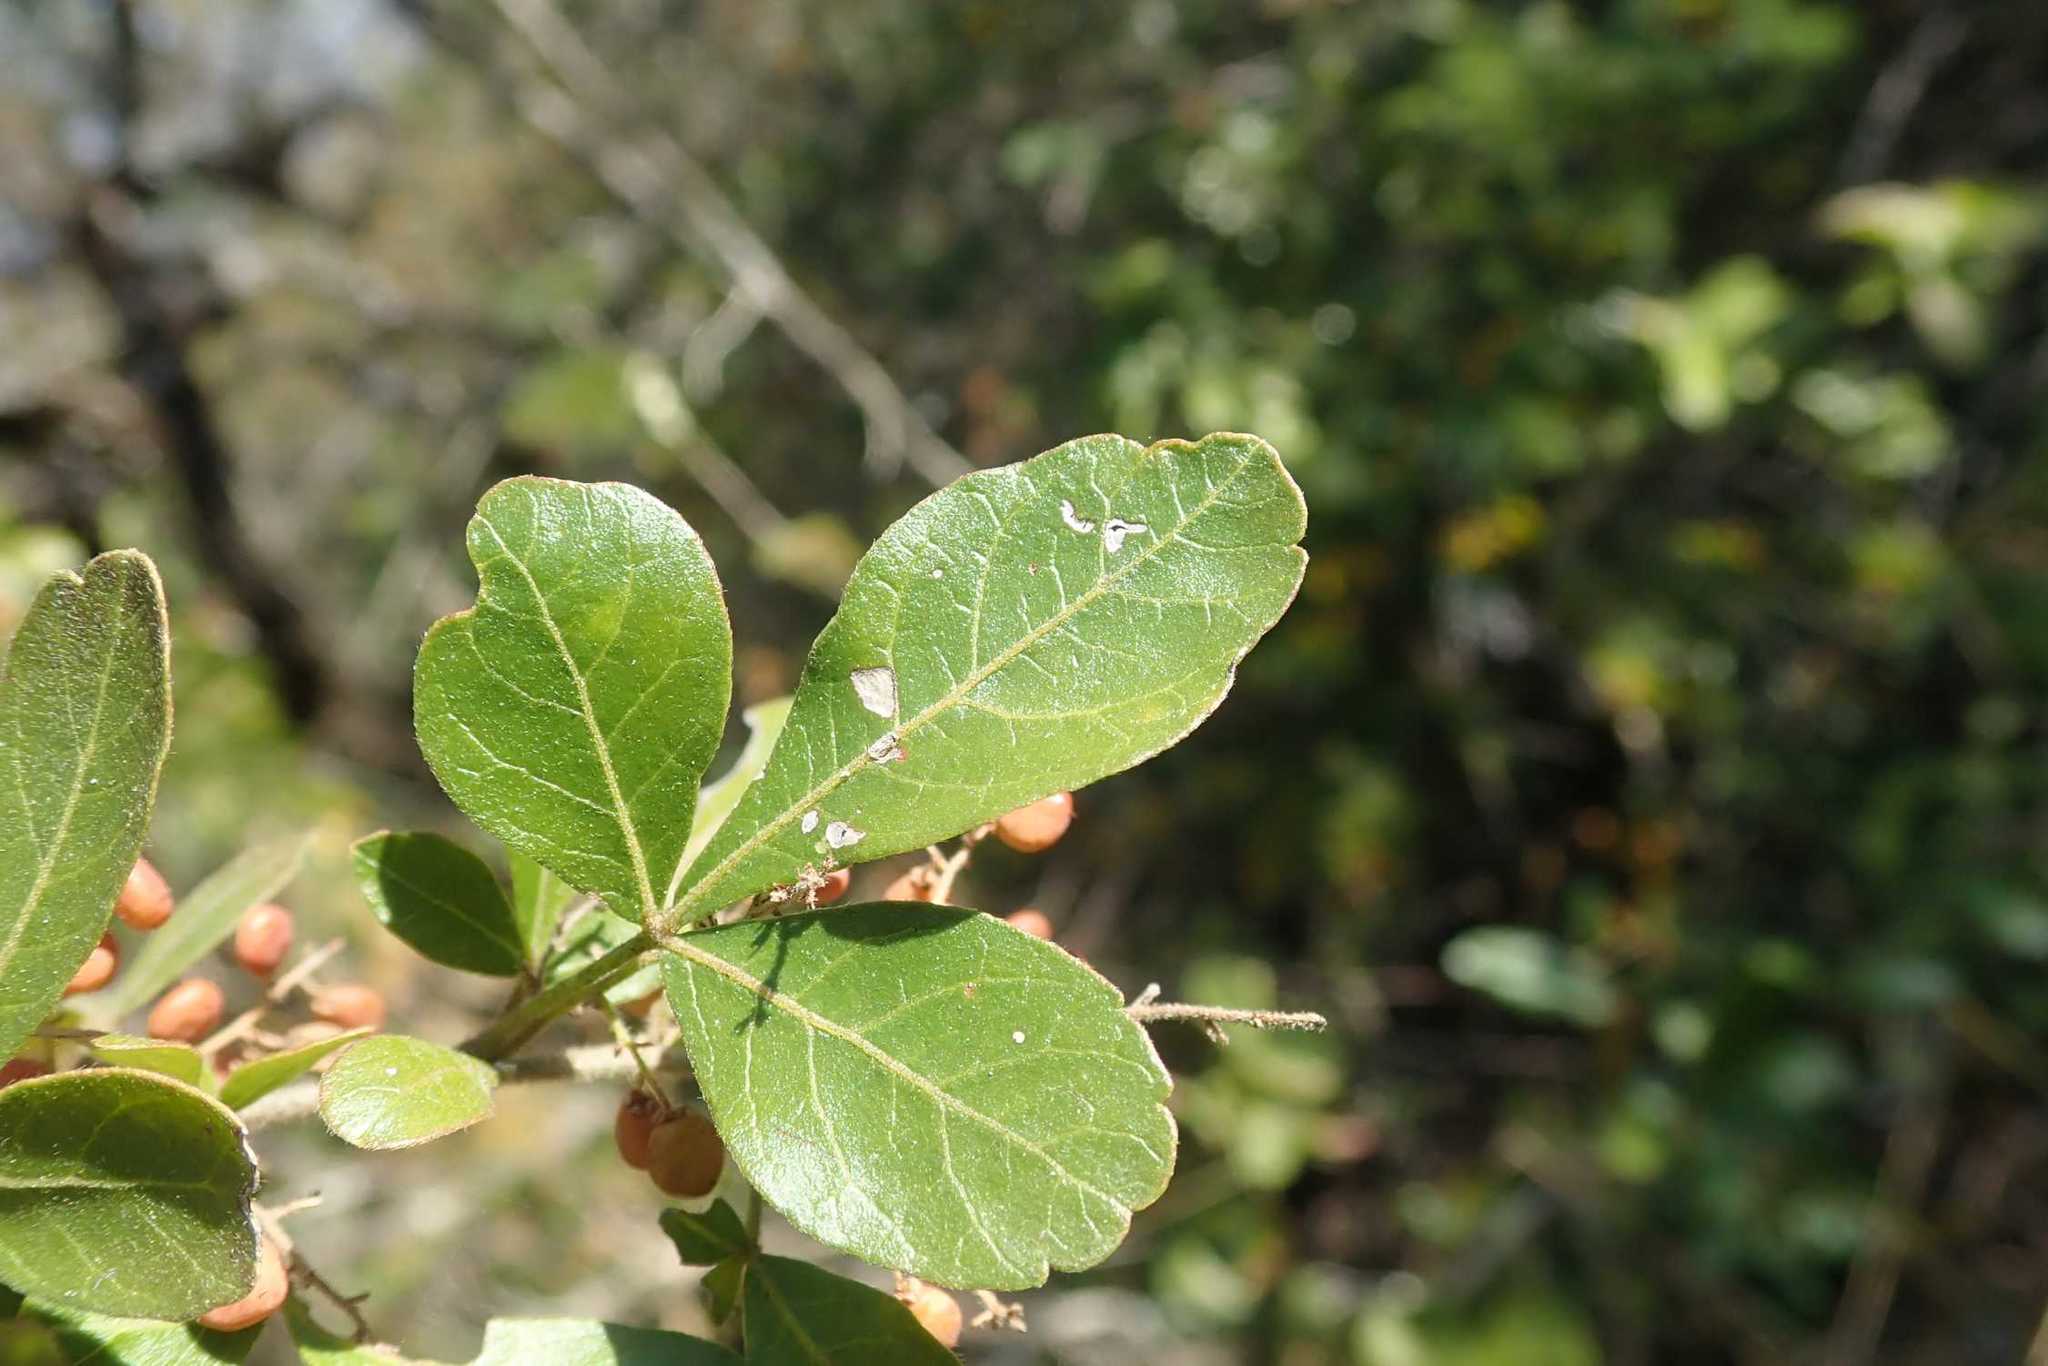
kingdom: Plantae
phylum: Tracheophyta
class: Magnoliopsida
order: Sapindales
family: Anacardiaceae
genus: Searsia
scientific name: Searsia pentheri
